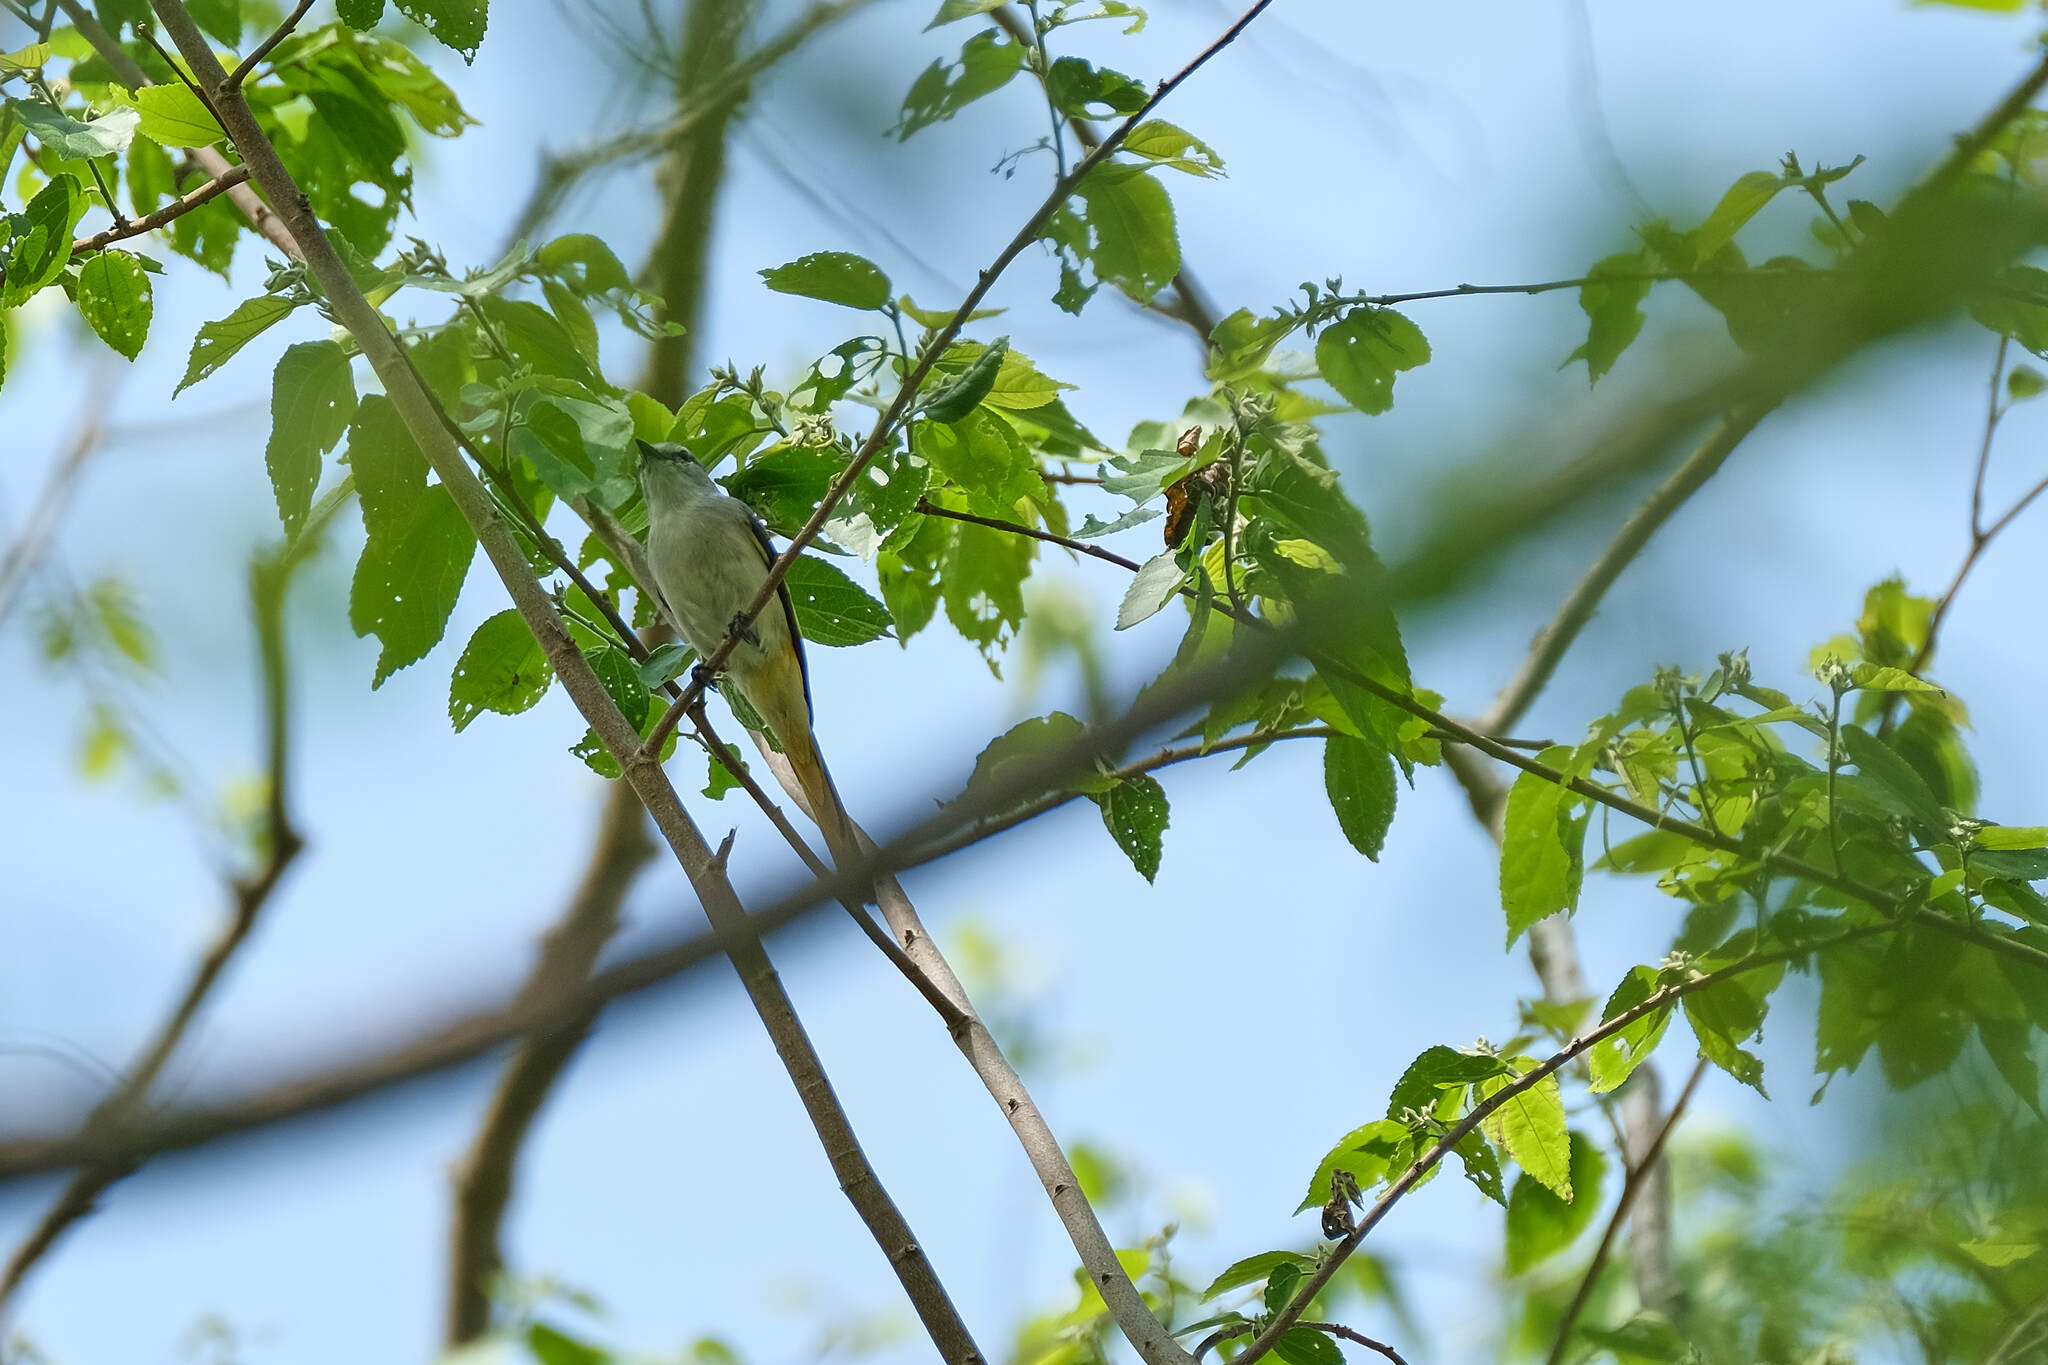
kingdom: Animalia
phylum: Chordata
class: Aves
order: Passeriformes
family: Campephagidae
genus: Pericrocotus
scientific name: Pericrocotus cinnamomeus
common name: Small minivet
